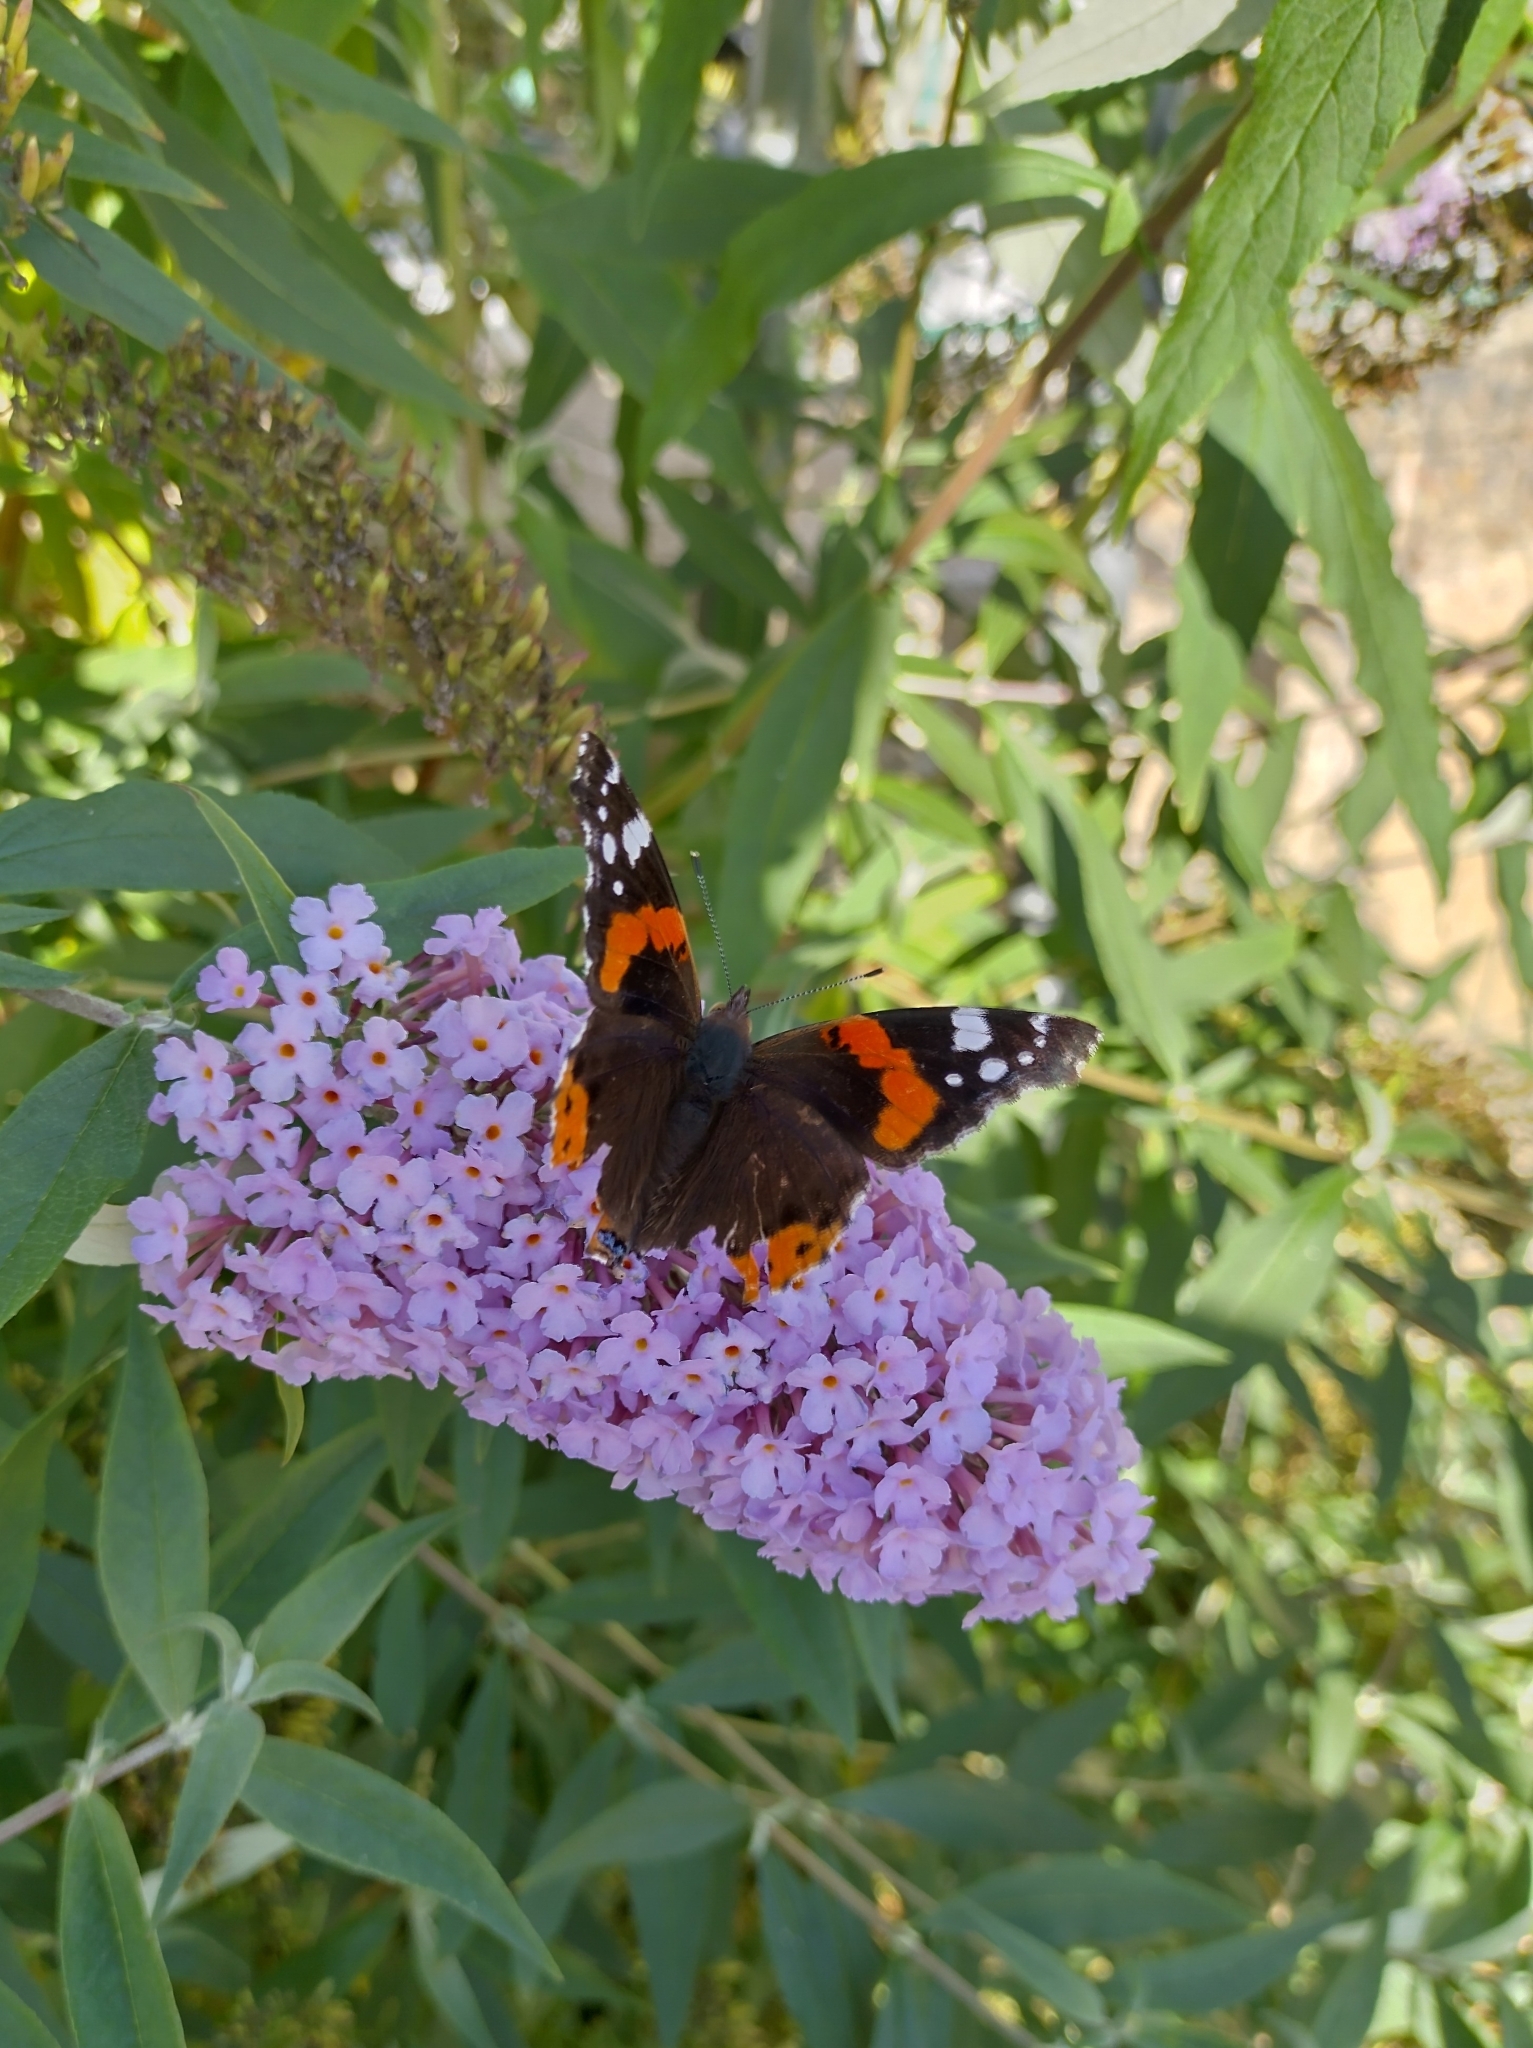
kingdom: Animalia
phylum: Arthropoda
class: Insecta
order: Lepidoptera
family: Nymphalidae
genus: Vanessa
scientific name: Vanessa atalanta
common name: Red admiral
